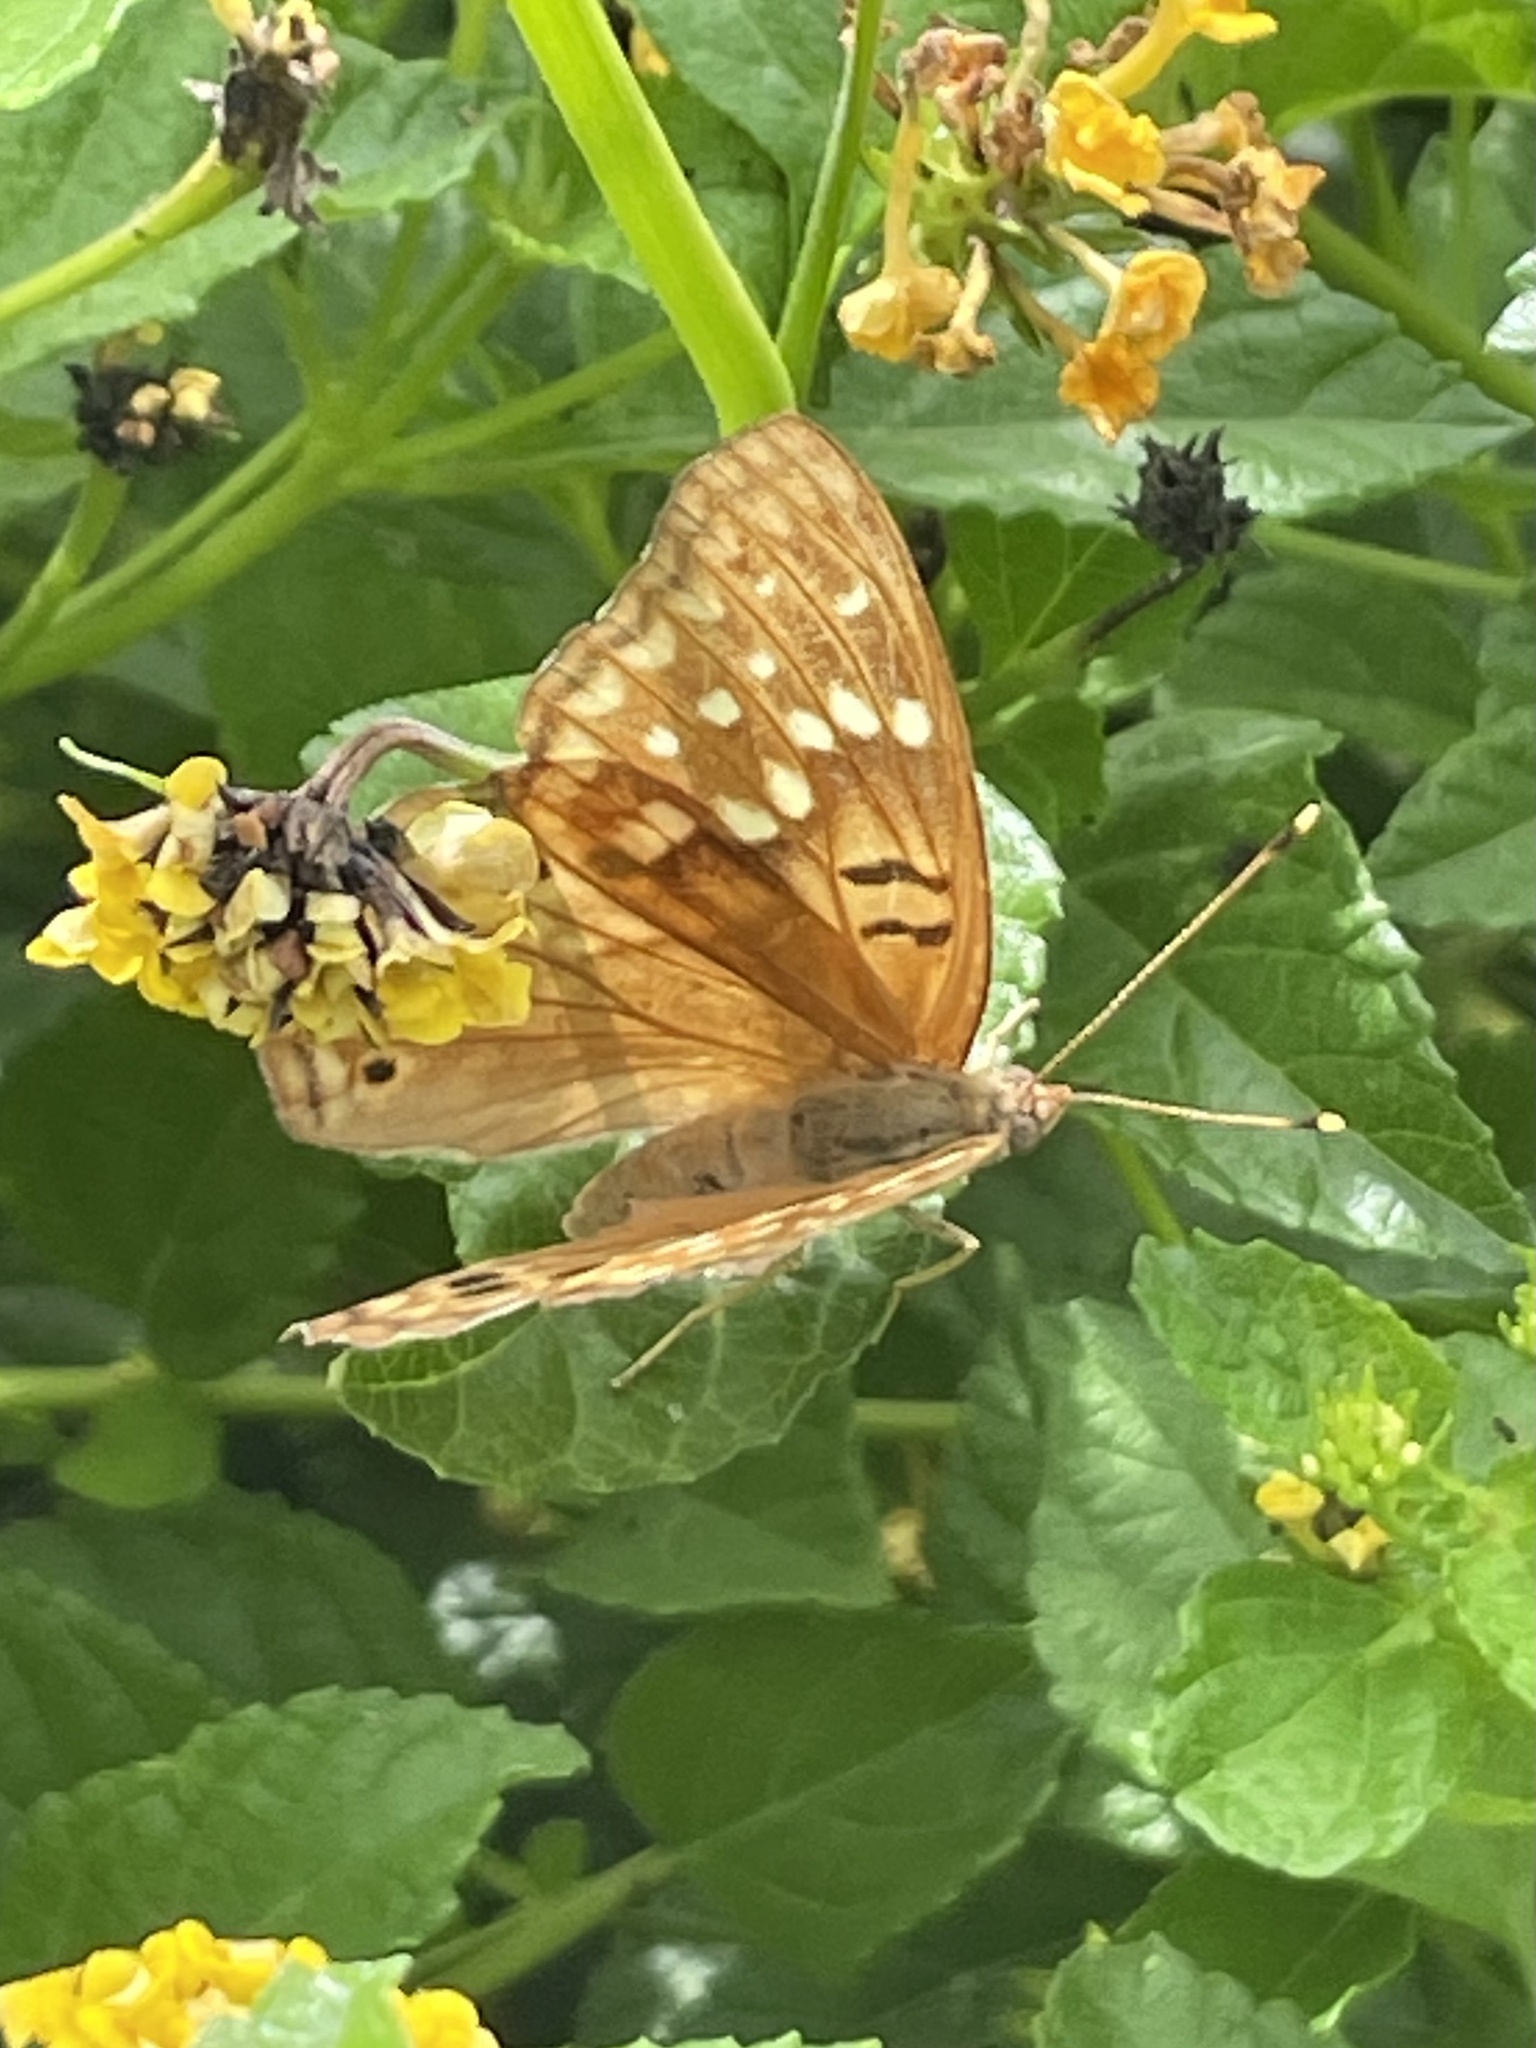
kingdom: Animalia
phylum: Arthropoda
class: Insecta
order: Lepidoptera
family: Nymphalidae
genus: Asterocampa
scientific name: Asterocampa clyton
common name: Tawny emperor
